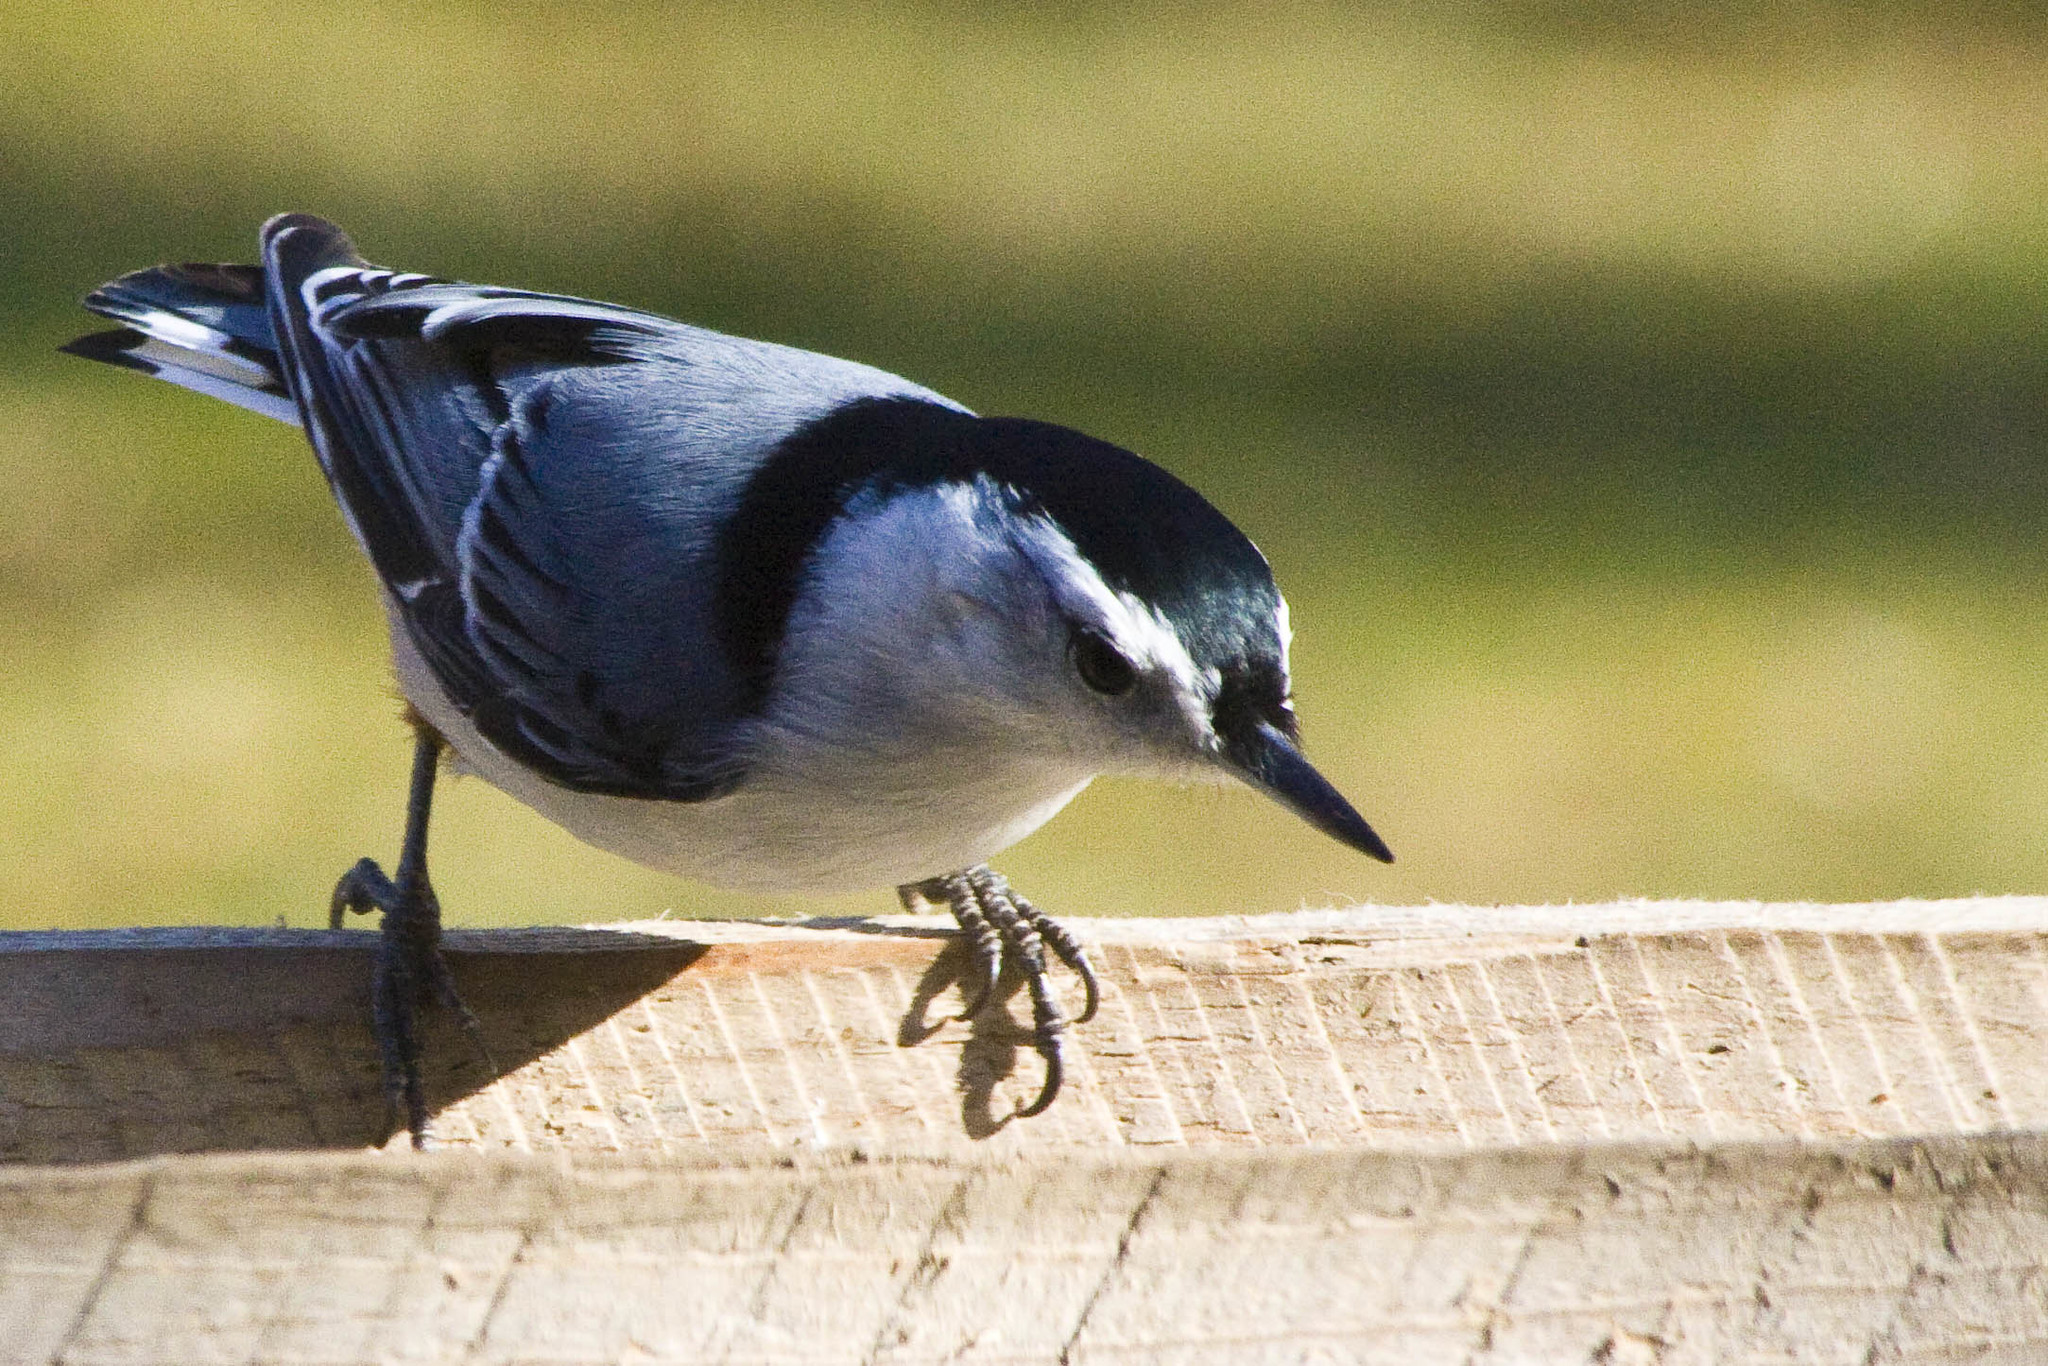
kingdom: Animalia
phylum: Chordata
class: Aves
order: Passeriformes
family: Sittidae
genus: Sitta
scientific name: Sitta carolinensis
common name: White-breasted nuthatch
